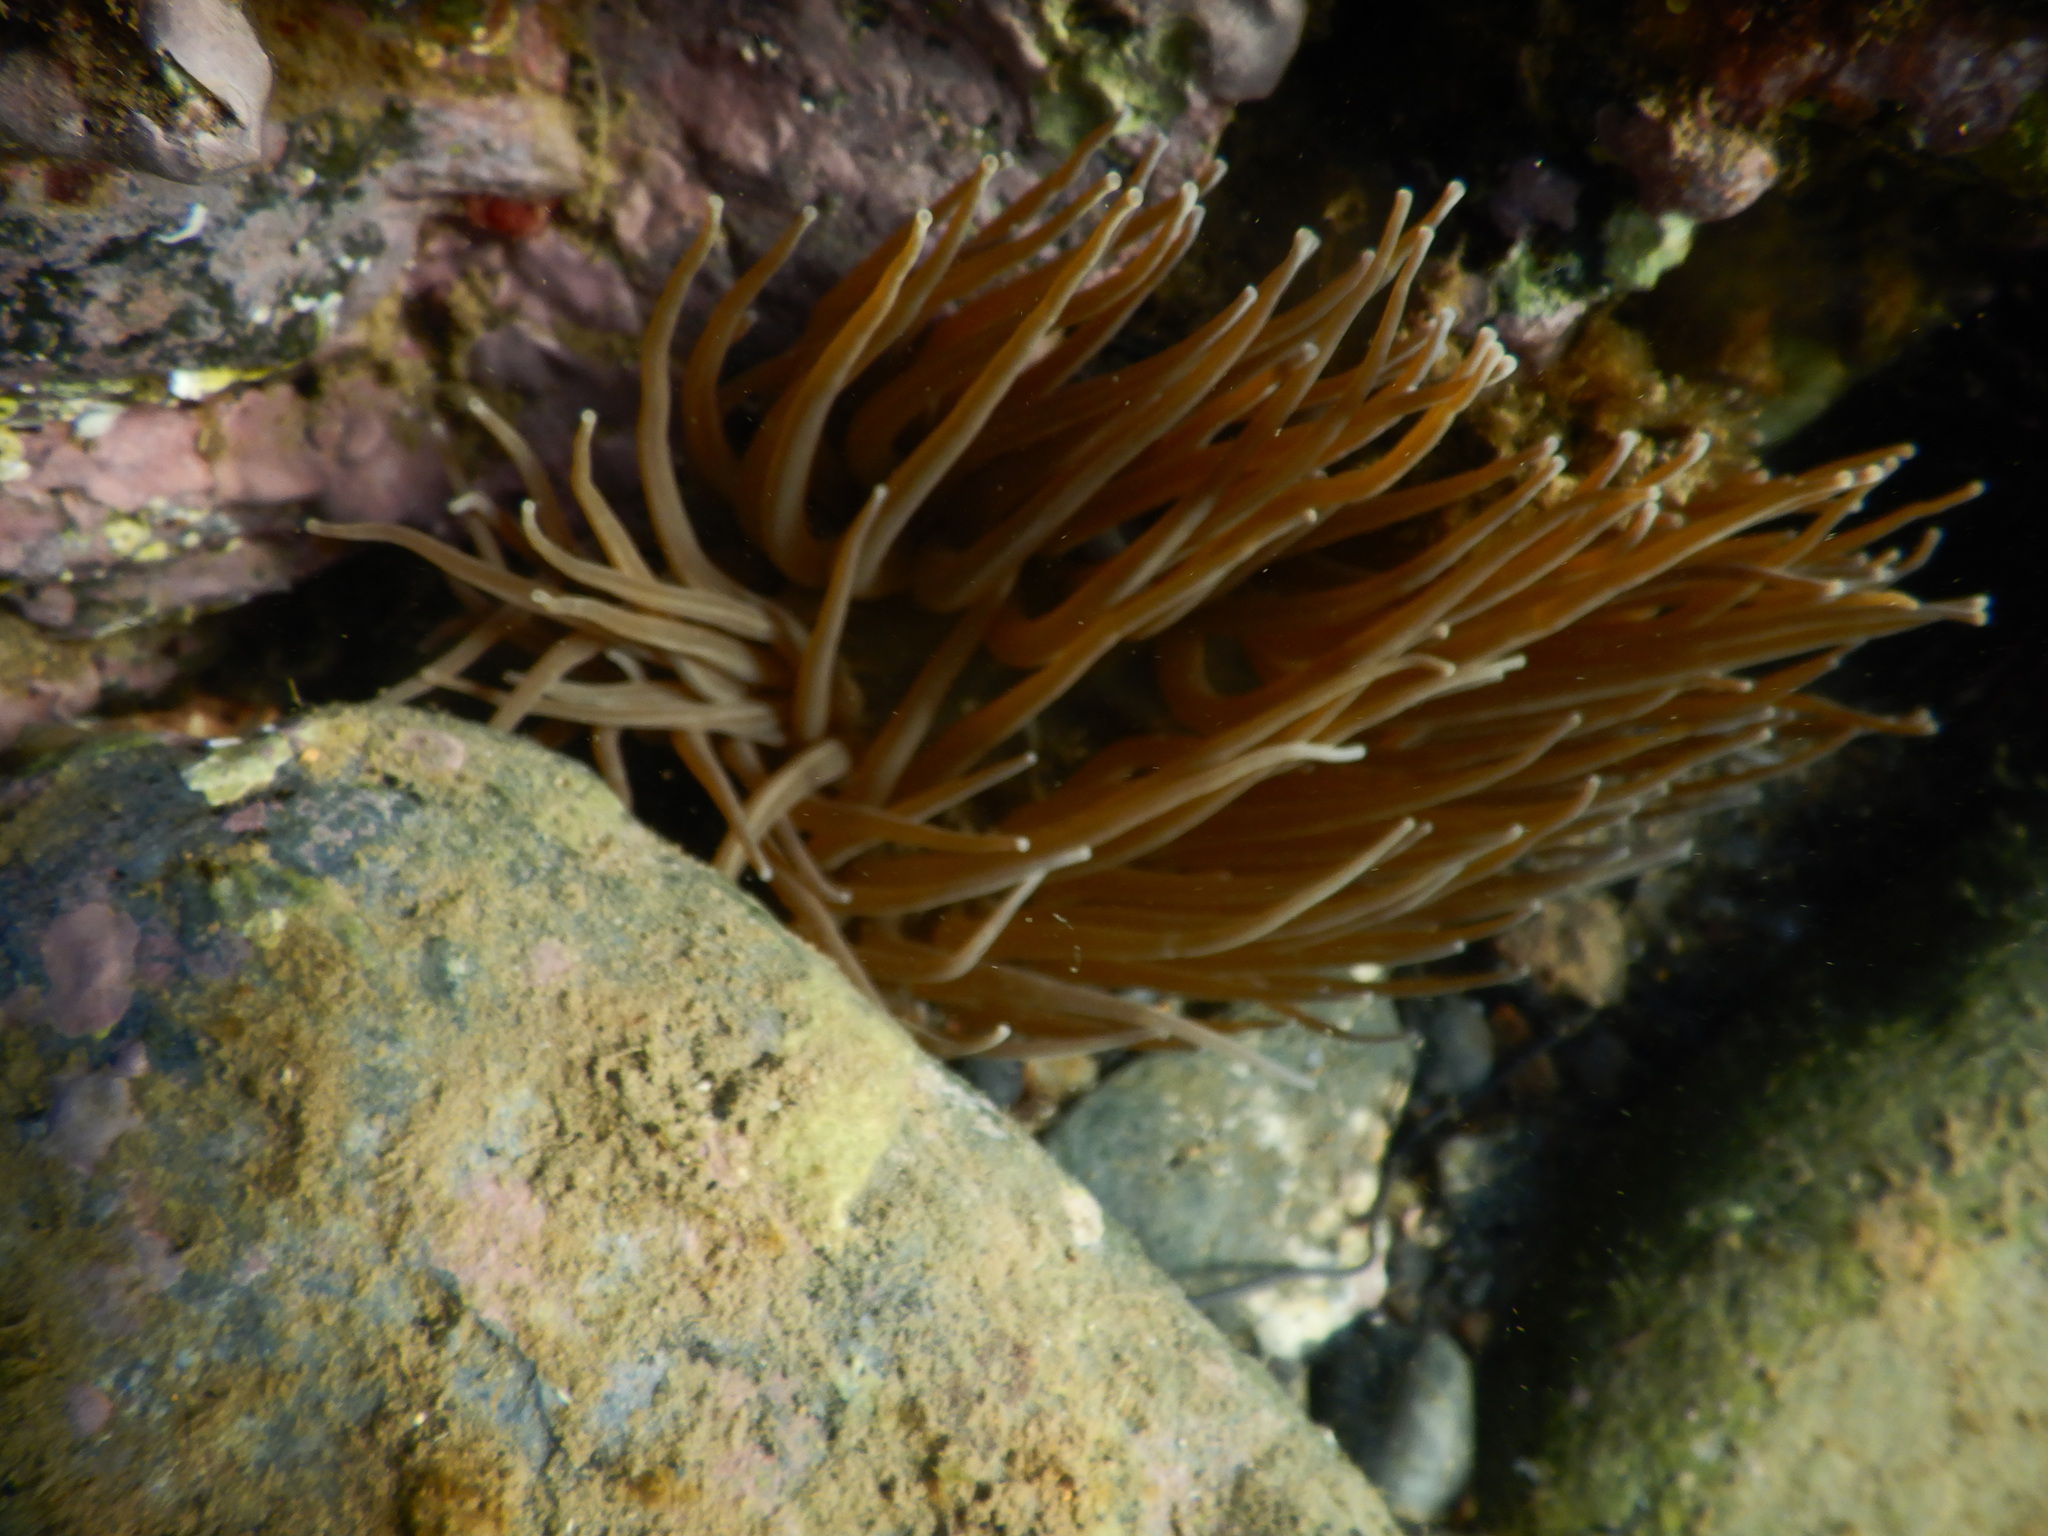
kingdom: Animalia
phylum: Cnidaria
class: Anthozoa
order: Actiniaria
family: Actiniidae
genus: Anemonia
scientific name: Anemonia viridis
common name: Snakelocks anemone
